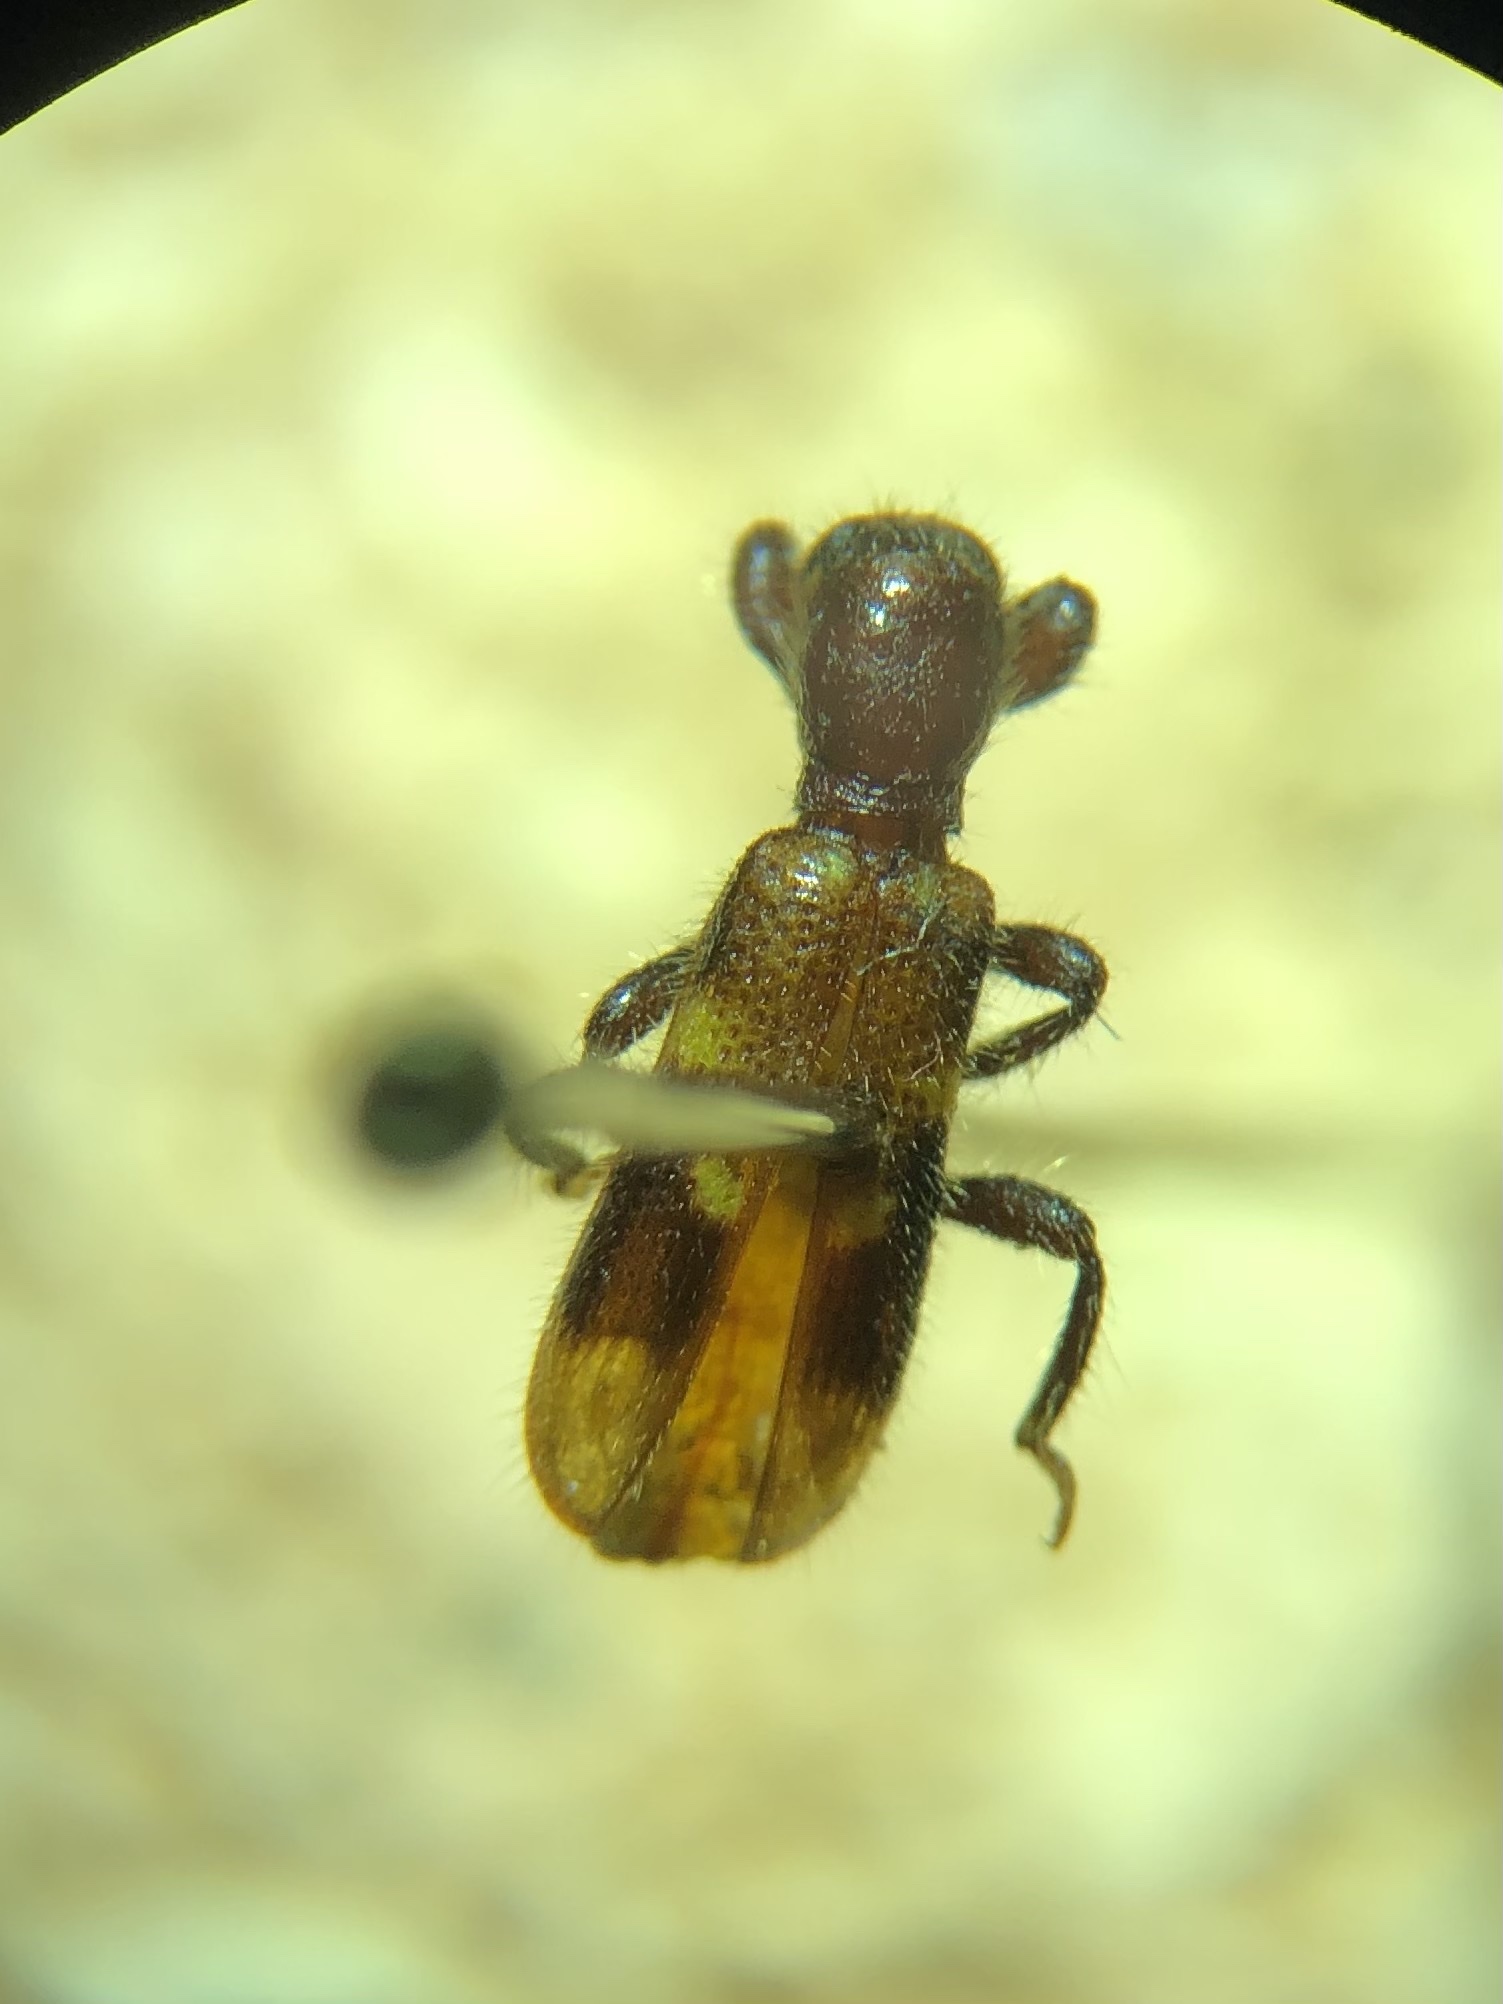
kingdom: Animalia
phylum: Arthropoda
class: Insecta
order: Coleoptera
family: Cleridae
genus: Priocera
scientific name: Priocera castanea
